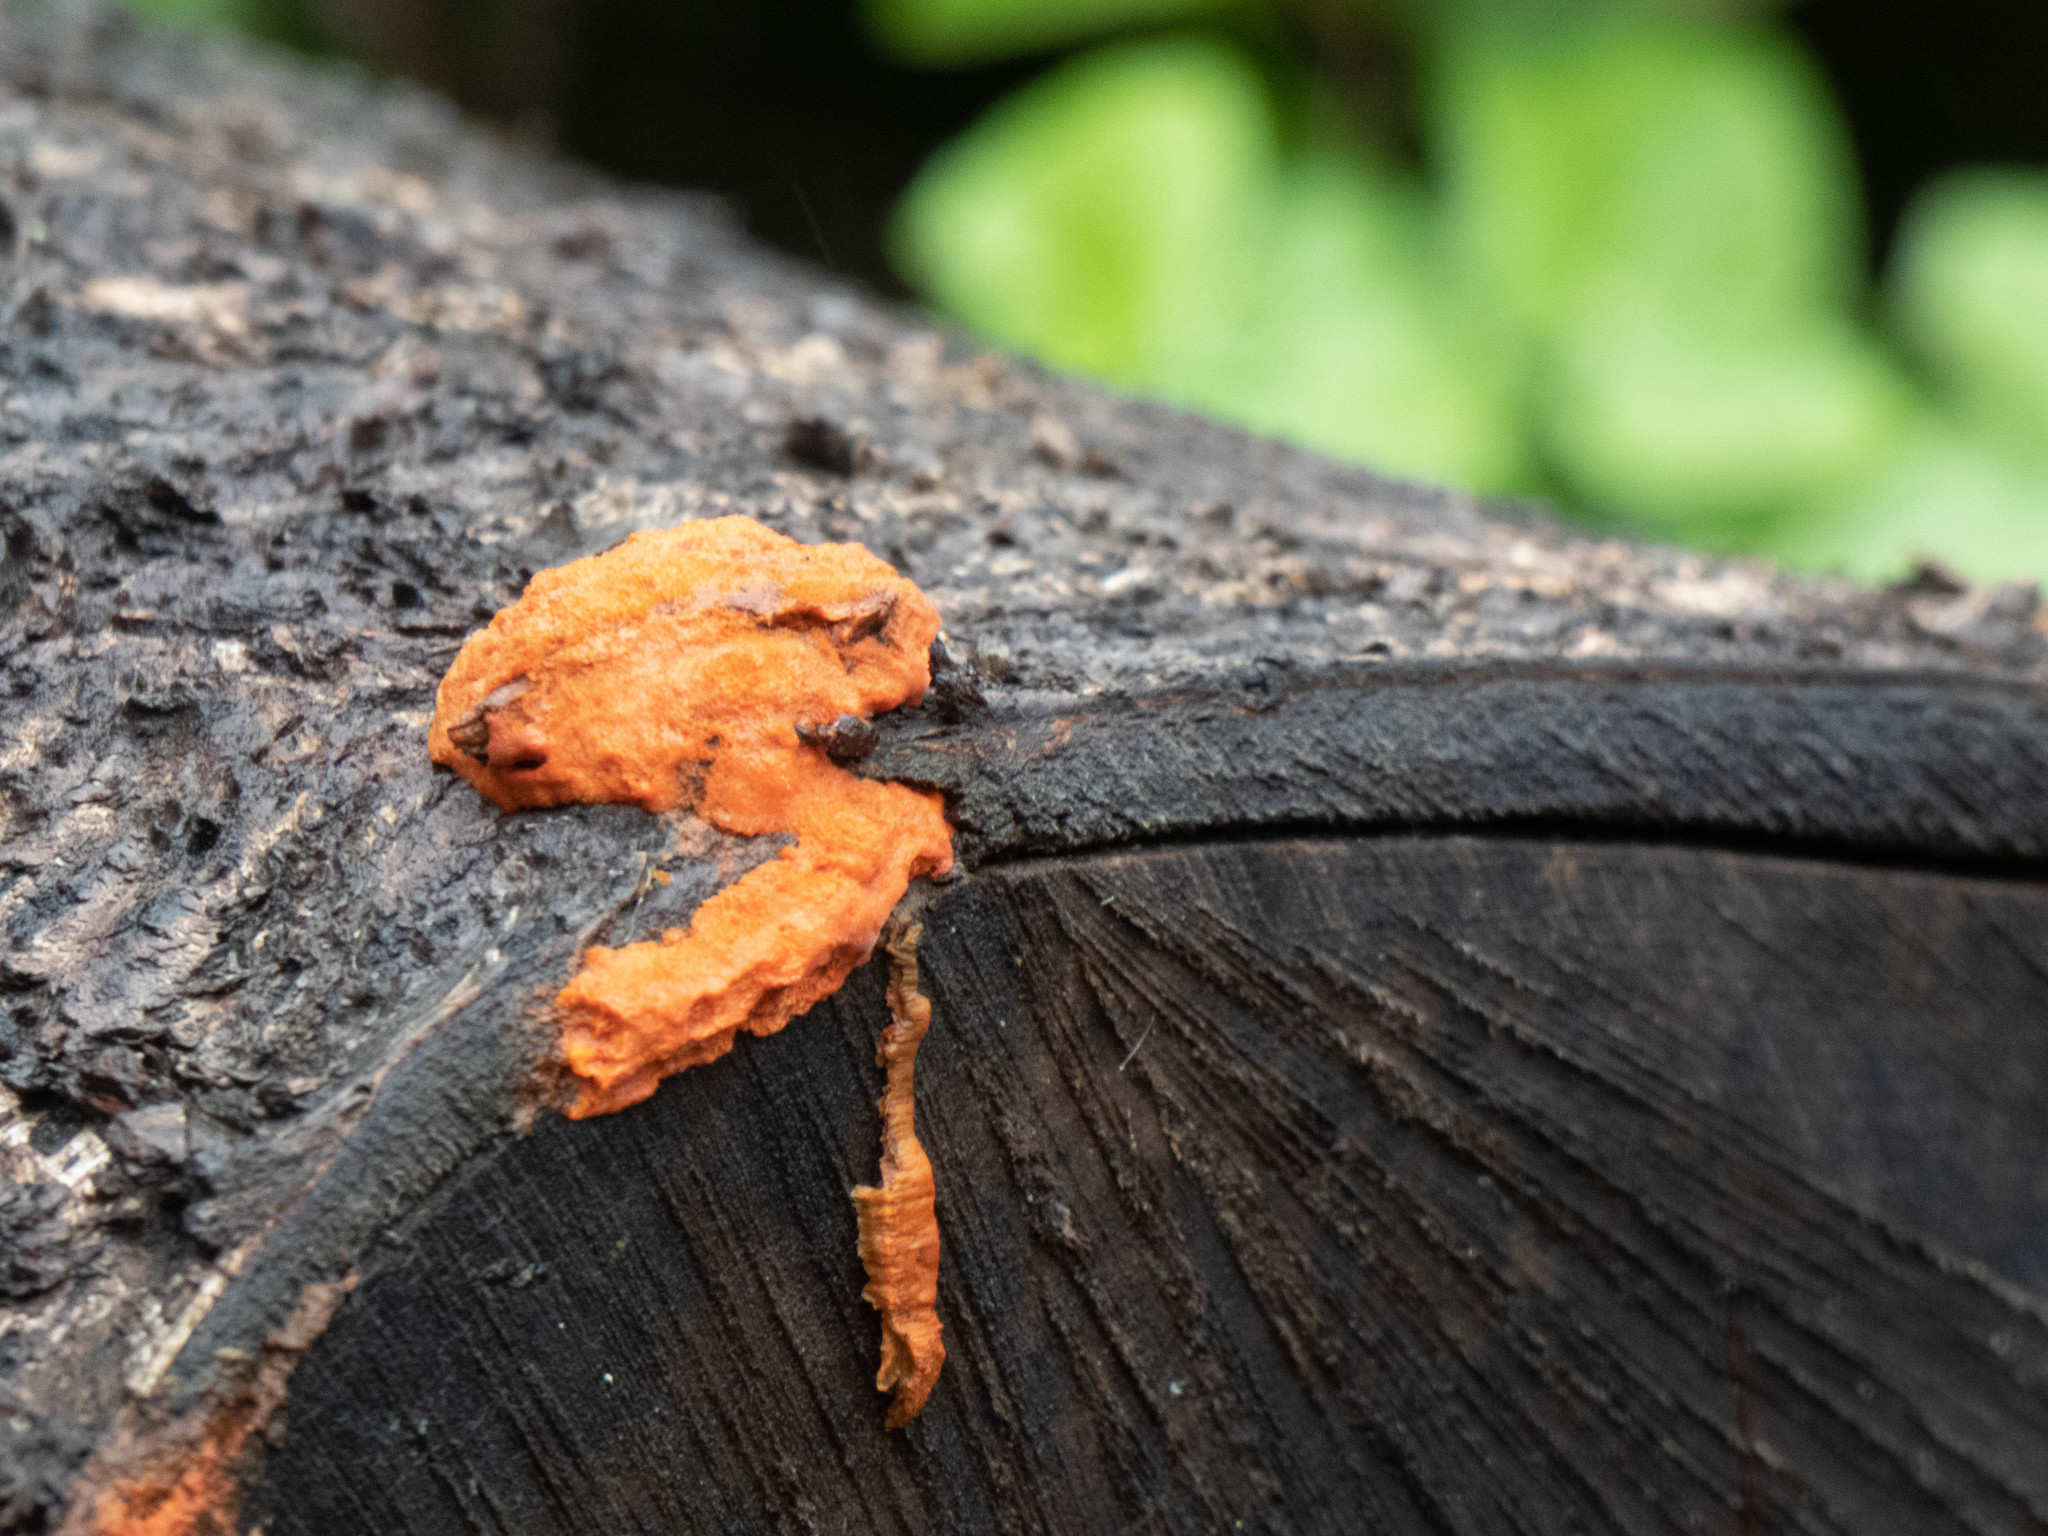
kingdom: Fungi
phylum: Basidiomycota
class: Agaricomycetes
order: Polyporales
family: Polyporaceae
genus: Trametes
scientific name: Trametes cinnabarina
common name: Northern cinnabar polypore
